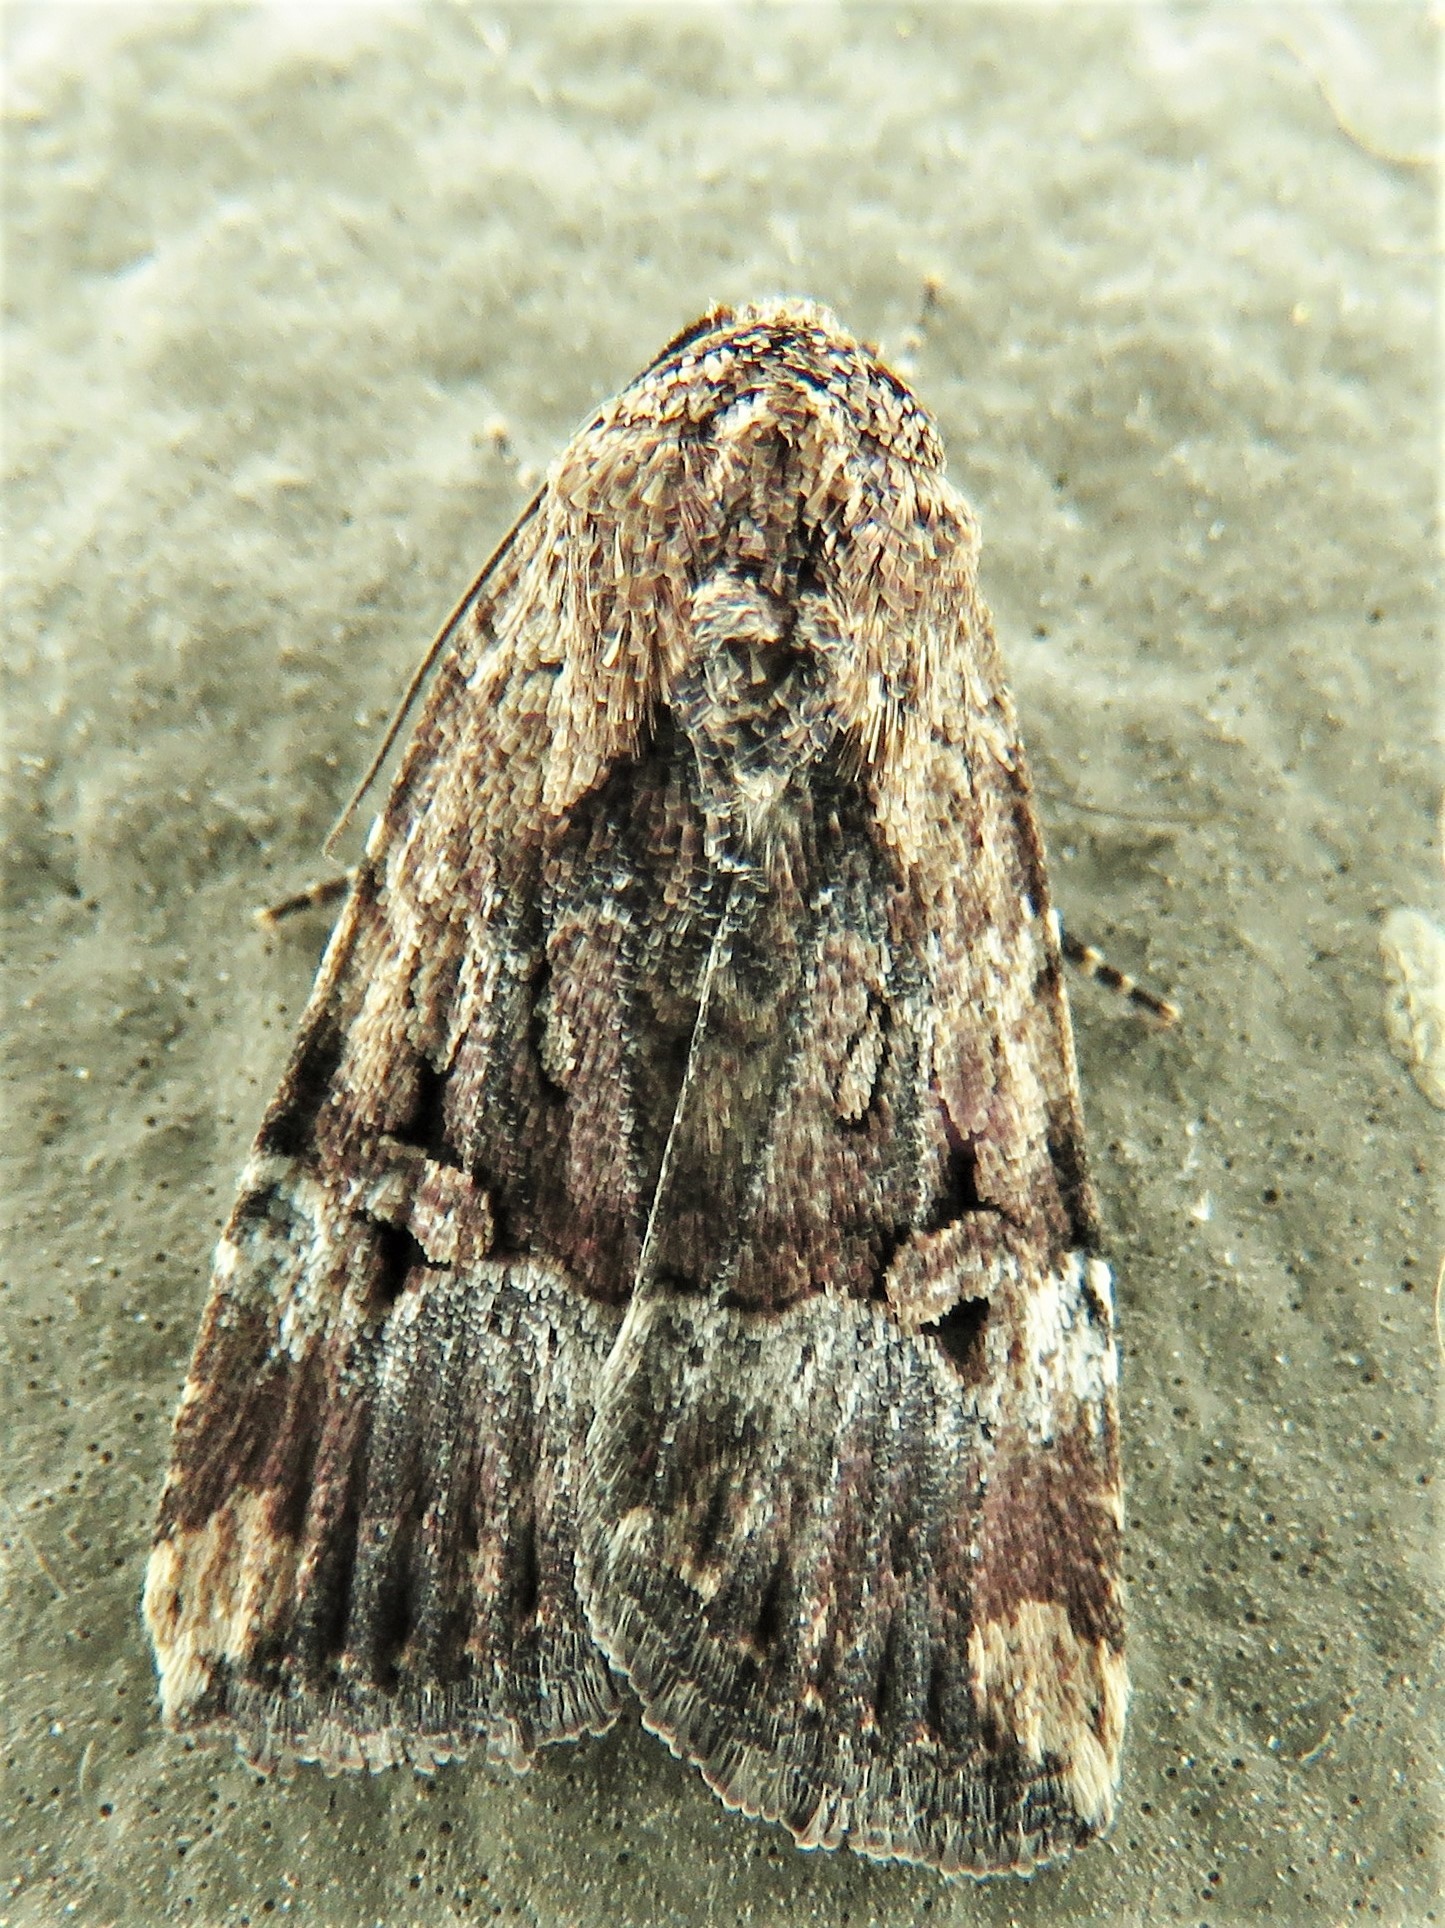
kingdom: Animalia
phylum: Arthropoda
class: Insecta
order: Lepidoptera
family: Noctuidae
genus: Elaphria
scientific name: Elaphria chalcedonia
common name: Chalcedony midget
